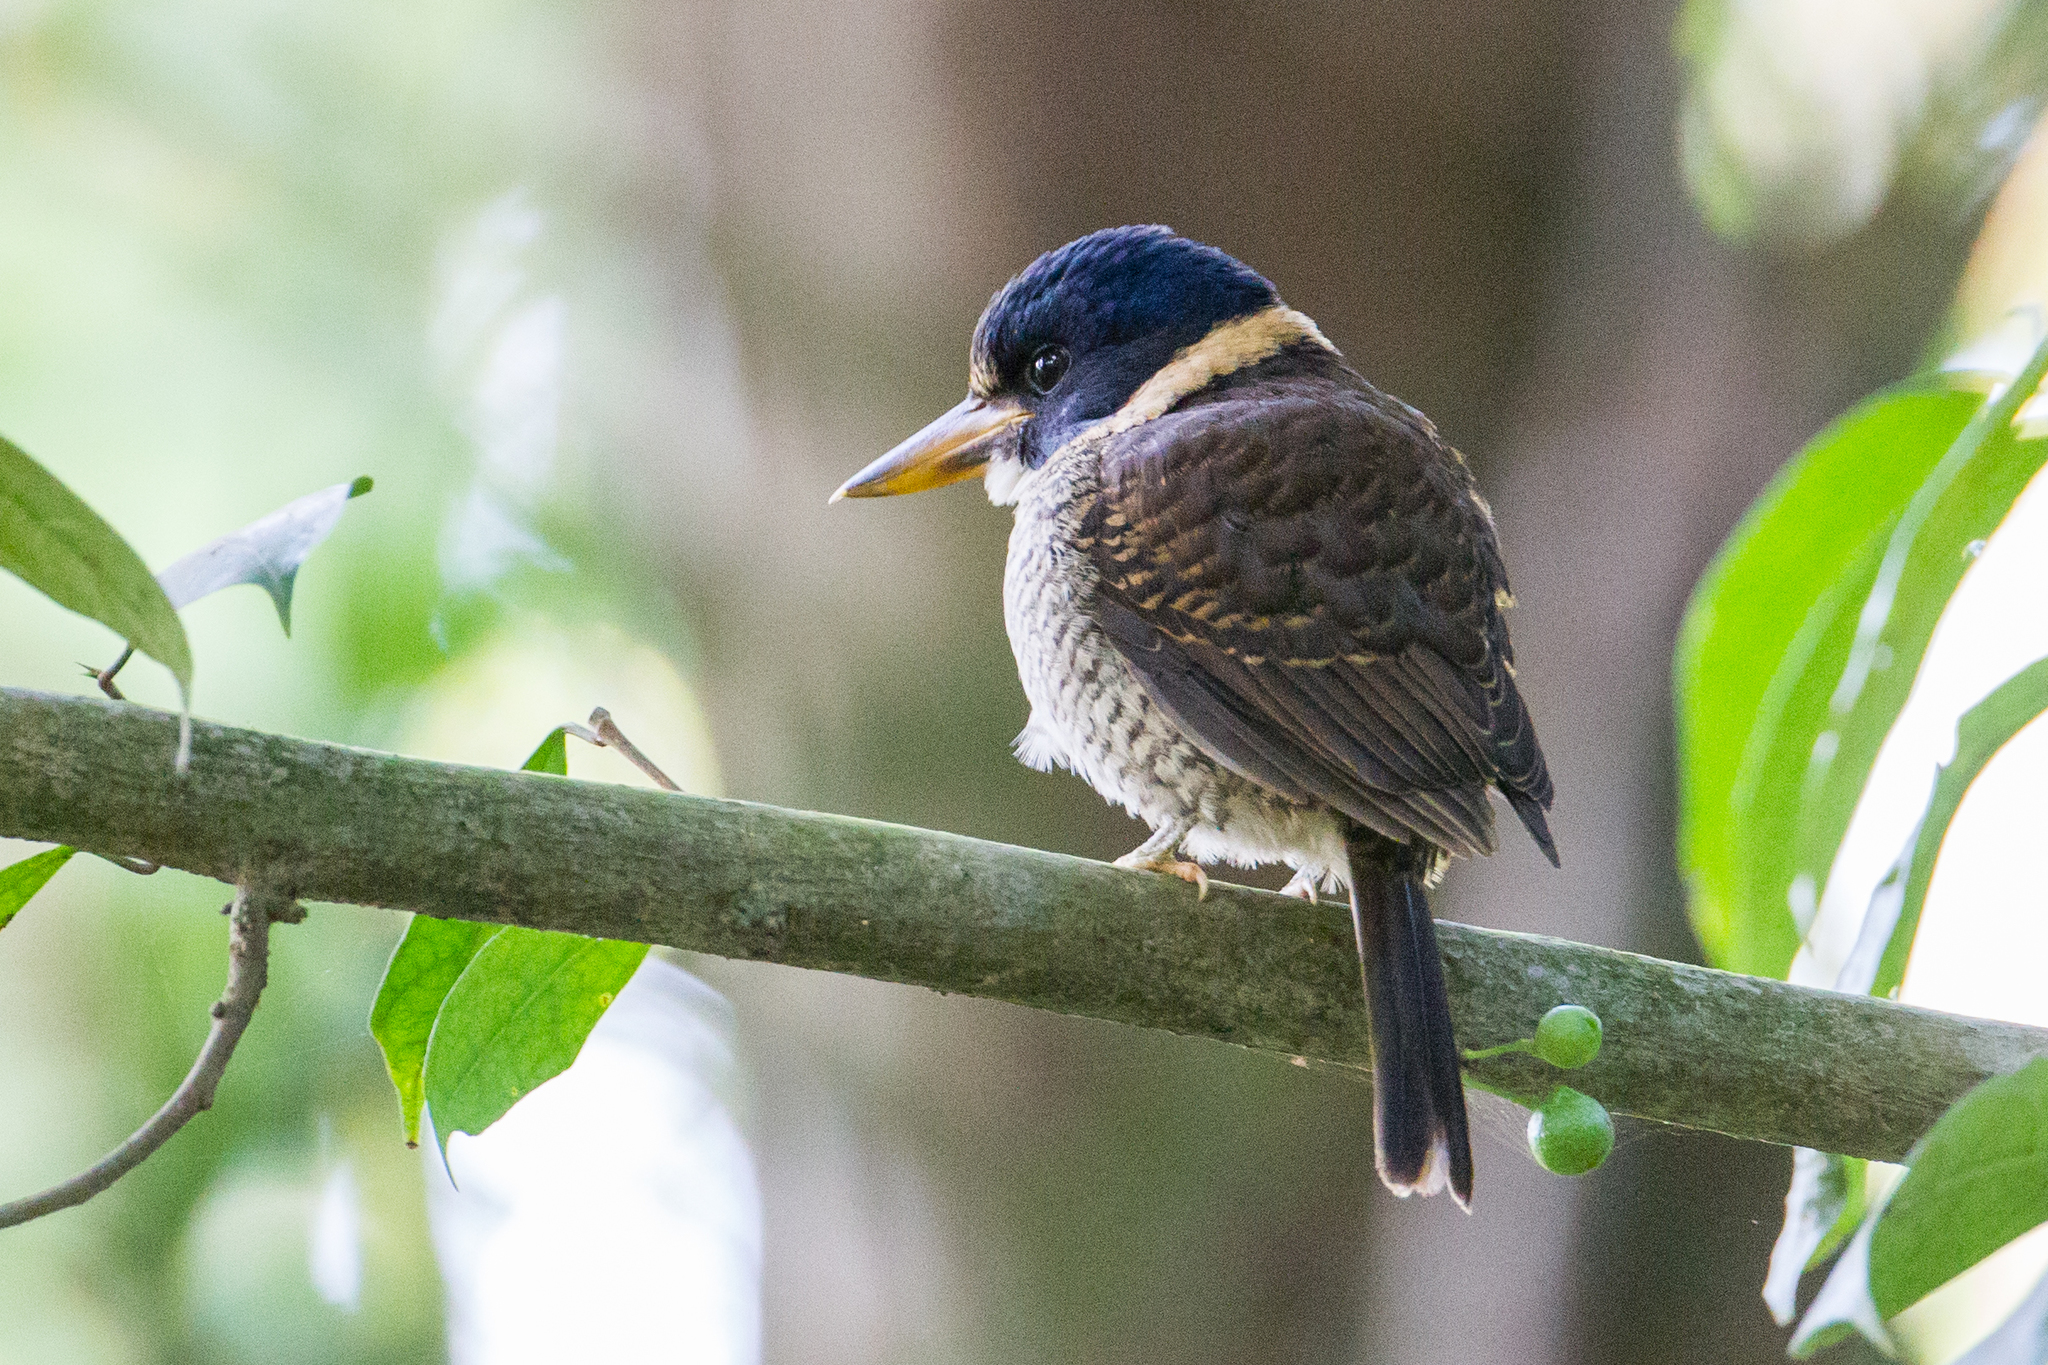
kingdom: Animalia
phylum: Chordata
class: Aves
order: Coraciiformes
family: Alcedinidae
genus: Actenoides
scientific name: Actenoides princeps
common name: Scaly-breasted kingfisher
